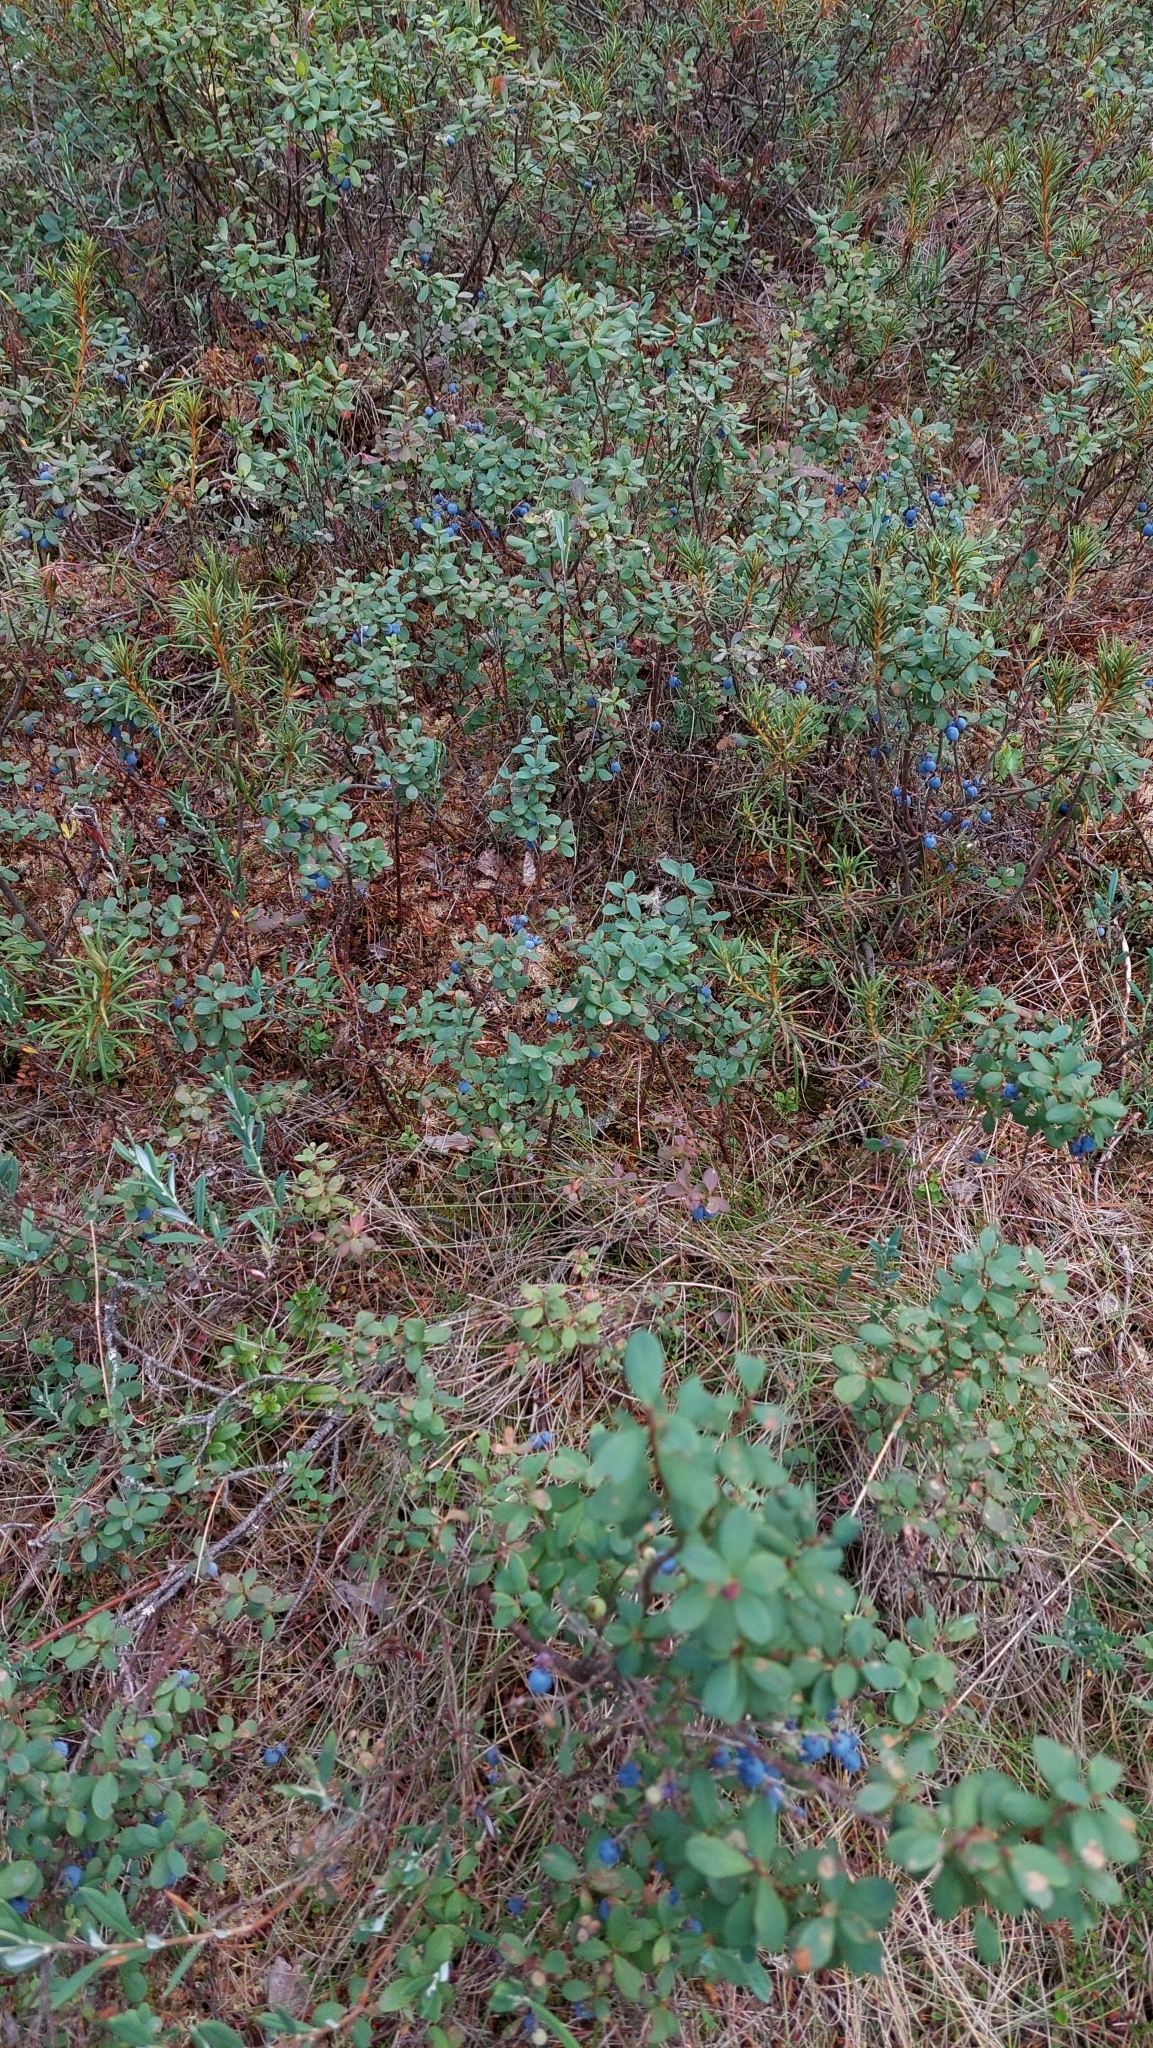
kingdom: Plantae
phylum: Tracheophyta
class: Magnoliopsida
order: Ericales
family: Ericaceae
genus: Vaccinium
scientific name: Vaccinium uliginosum
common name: Bog bilberry
